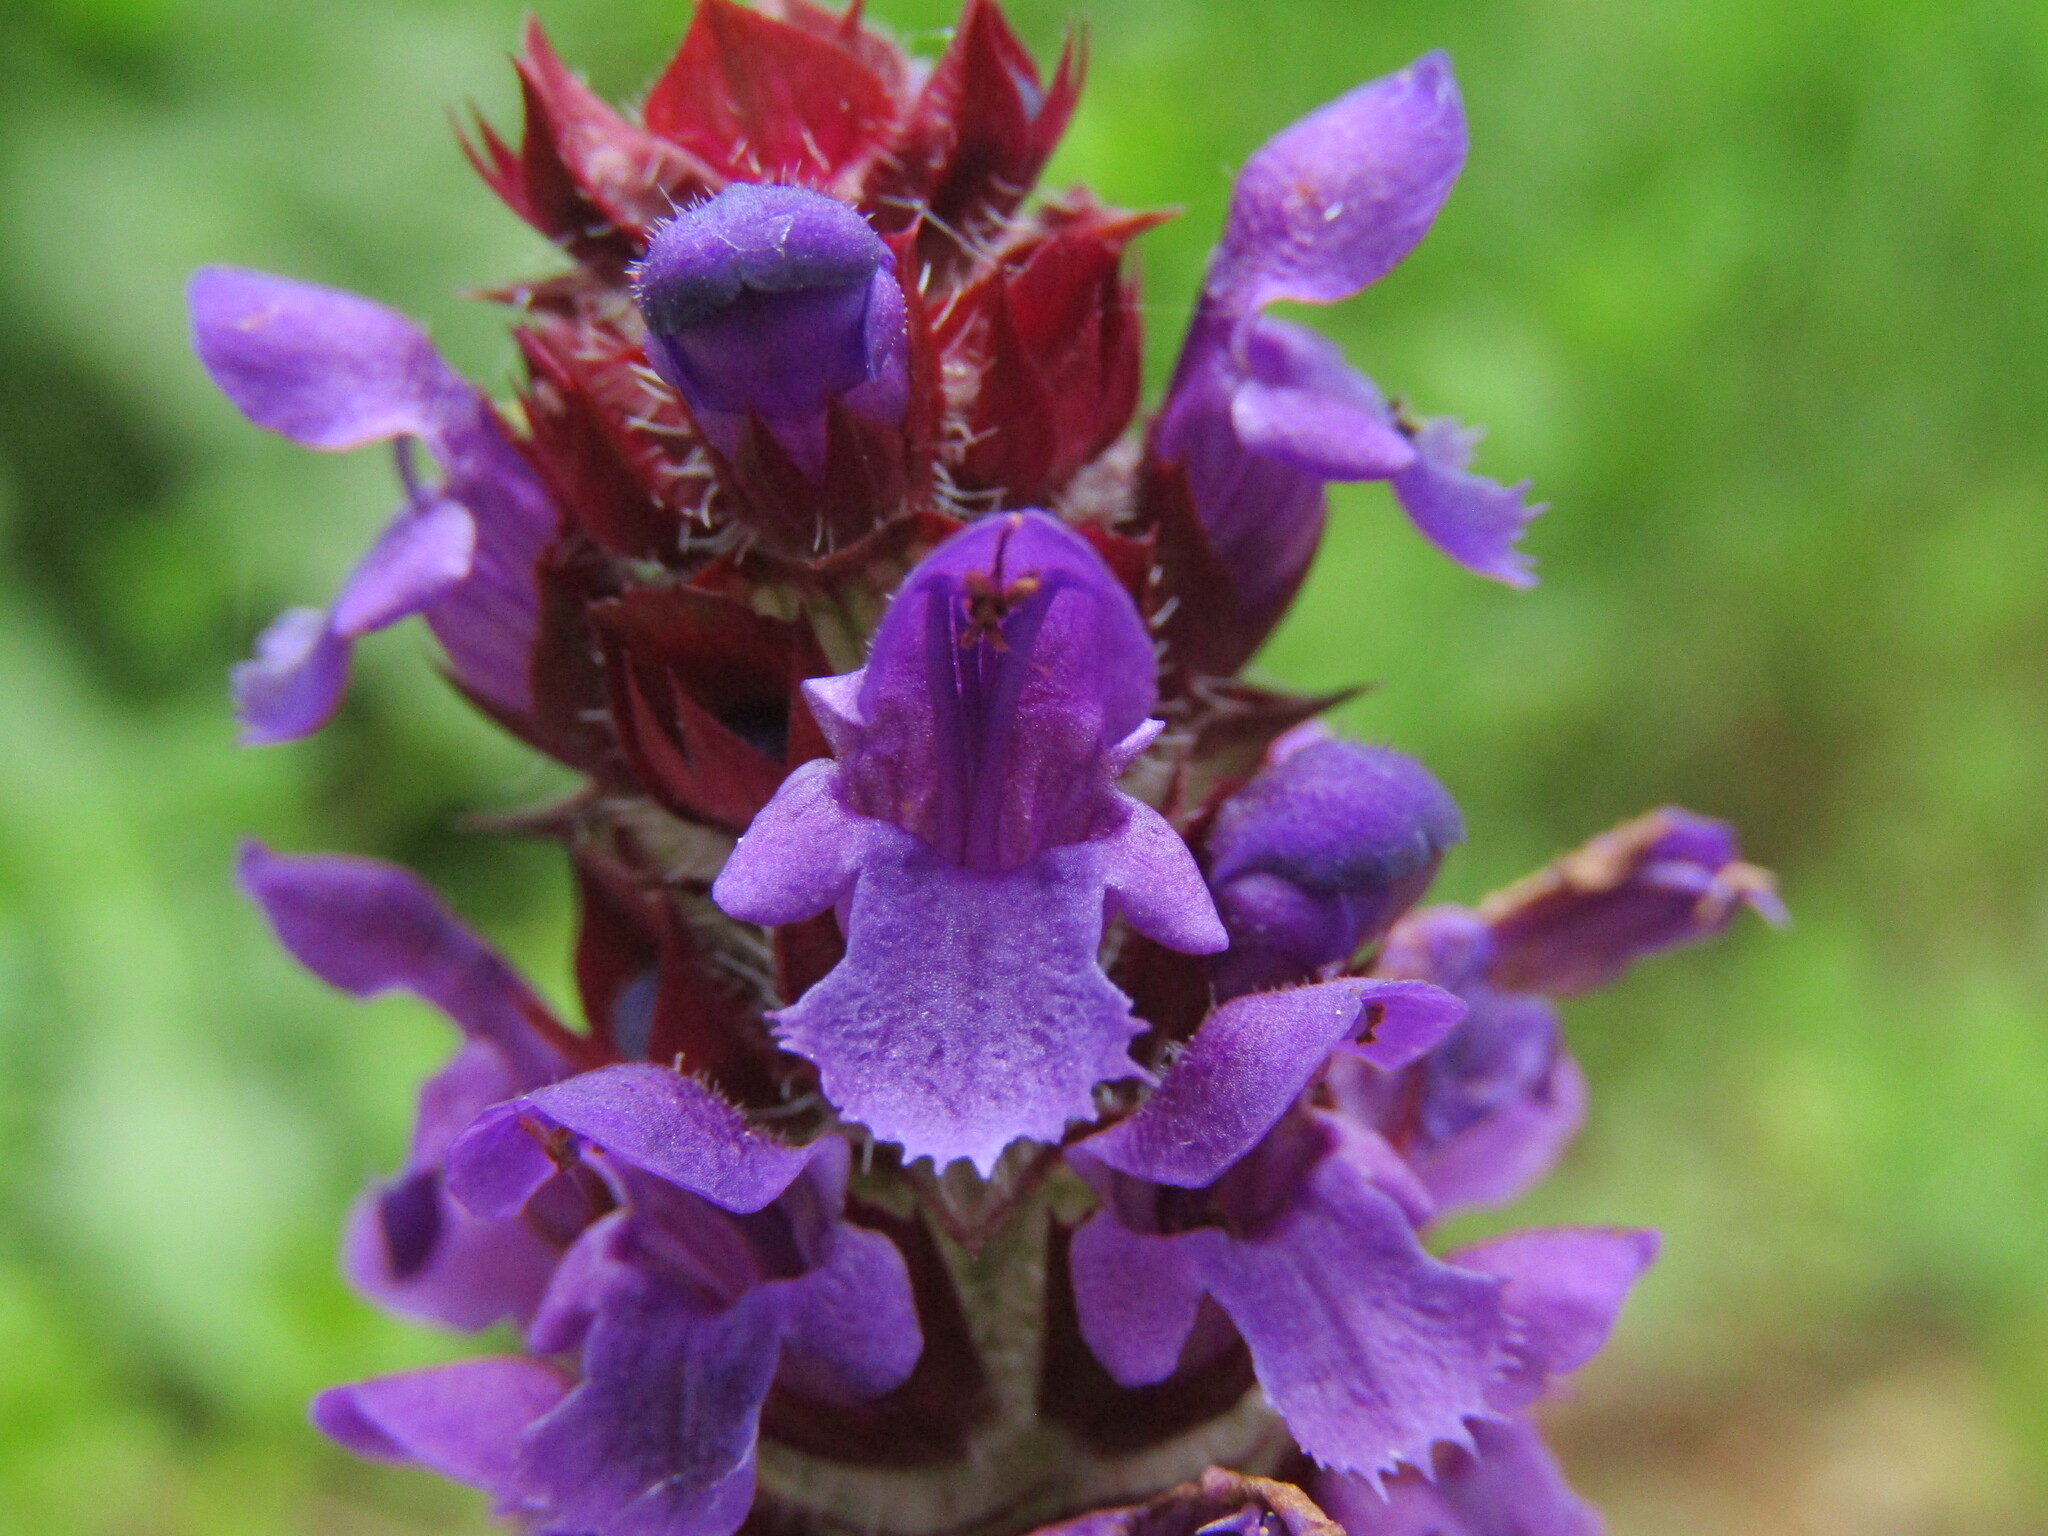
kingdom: Plantae
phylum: Tracheophyta
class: Magnoliopsida
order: Lamiales
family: Lamiaceae
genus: Prunella
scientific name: Prunella vulgaris
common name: Heal-all
